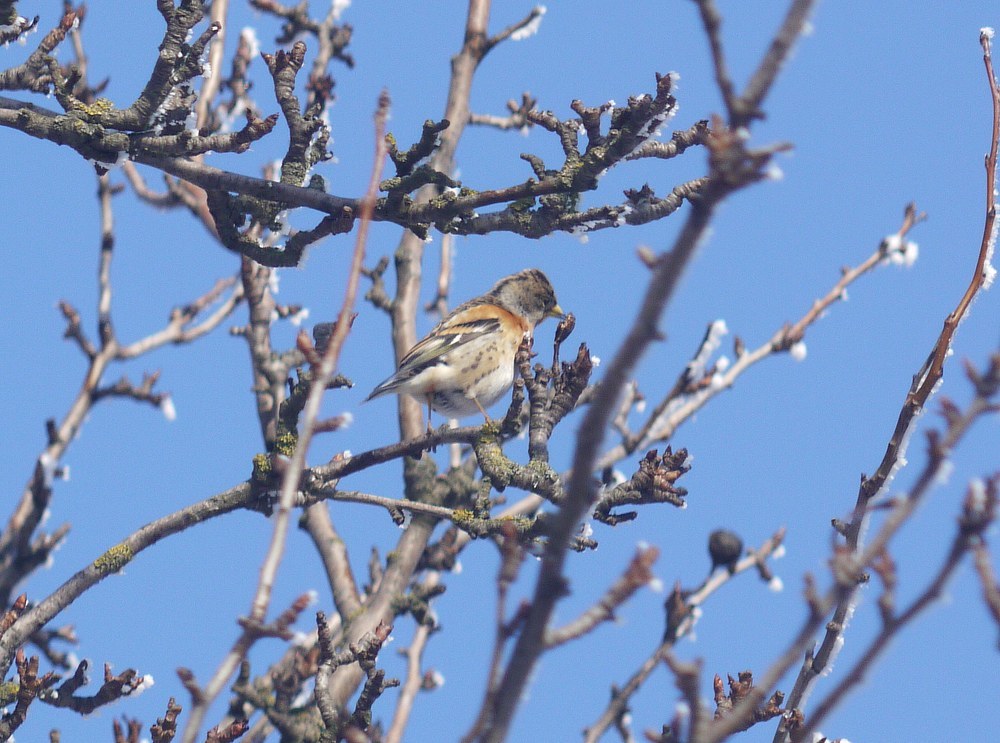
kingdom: Animalia
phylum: Chordata
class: Aves
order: Passeriformes
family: Fringillidae
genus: Fringilla
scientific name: Fringilla montifringilla
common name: Brambling
